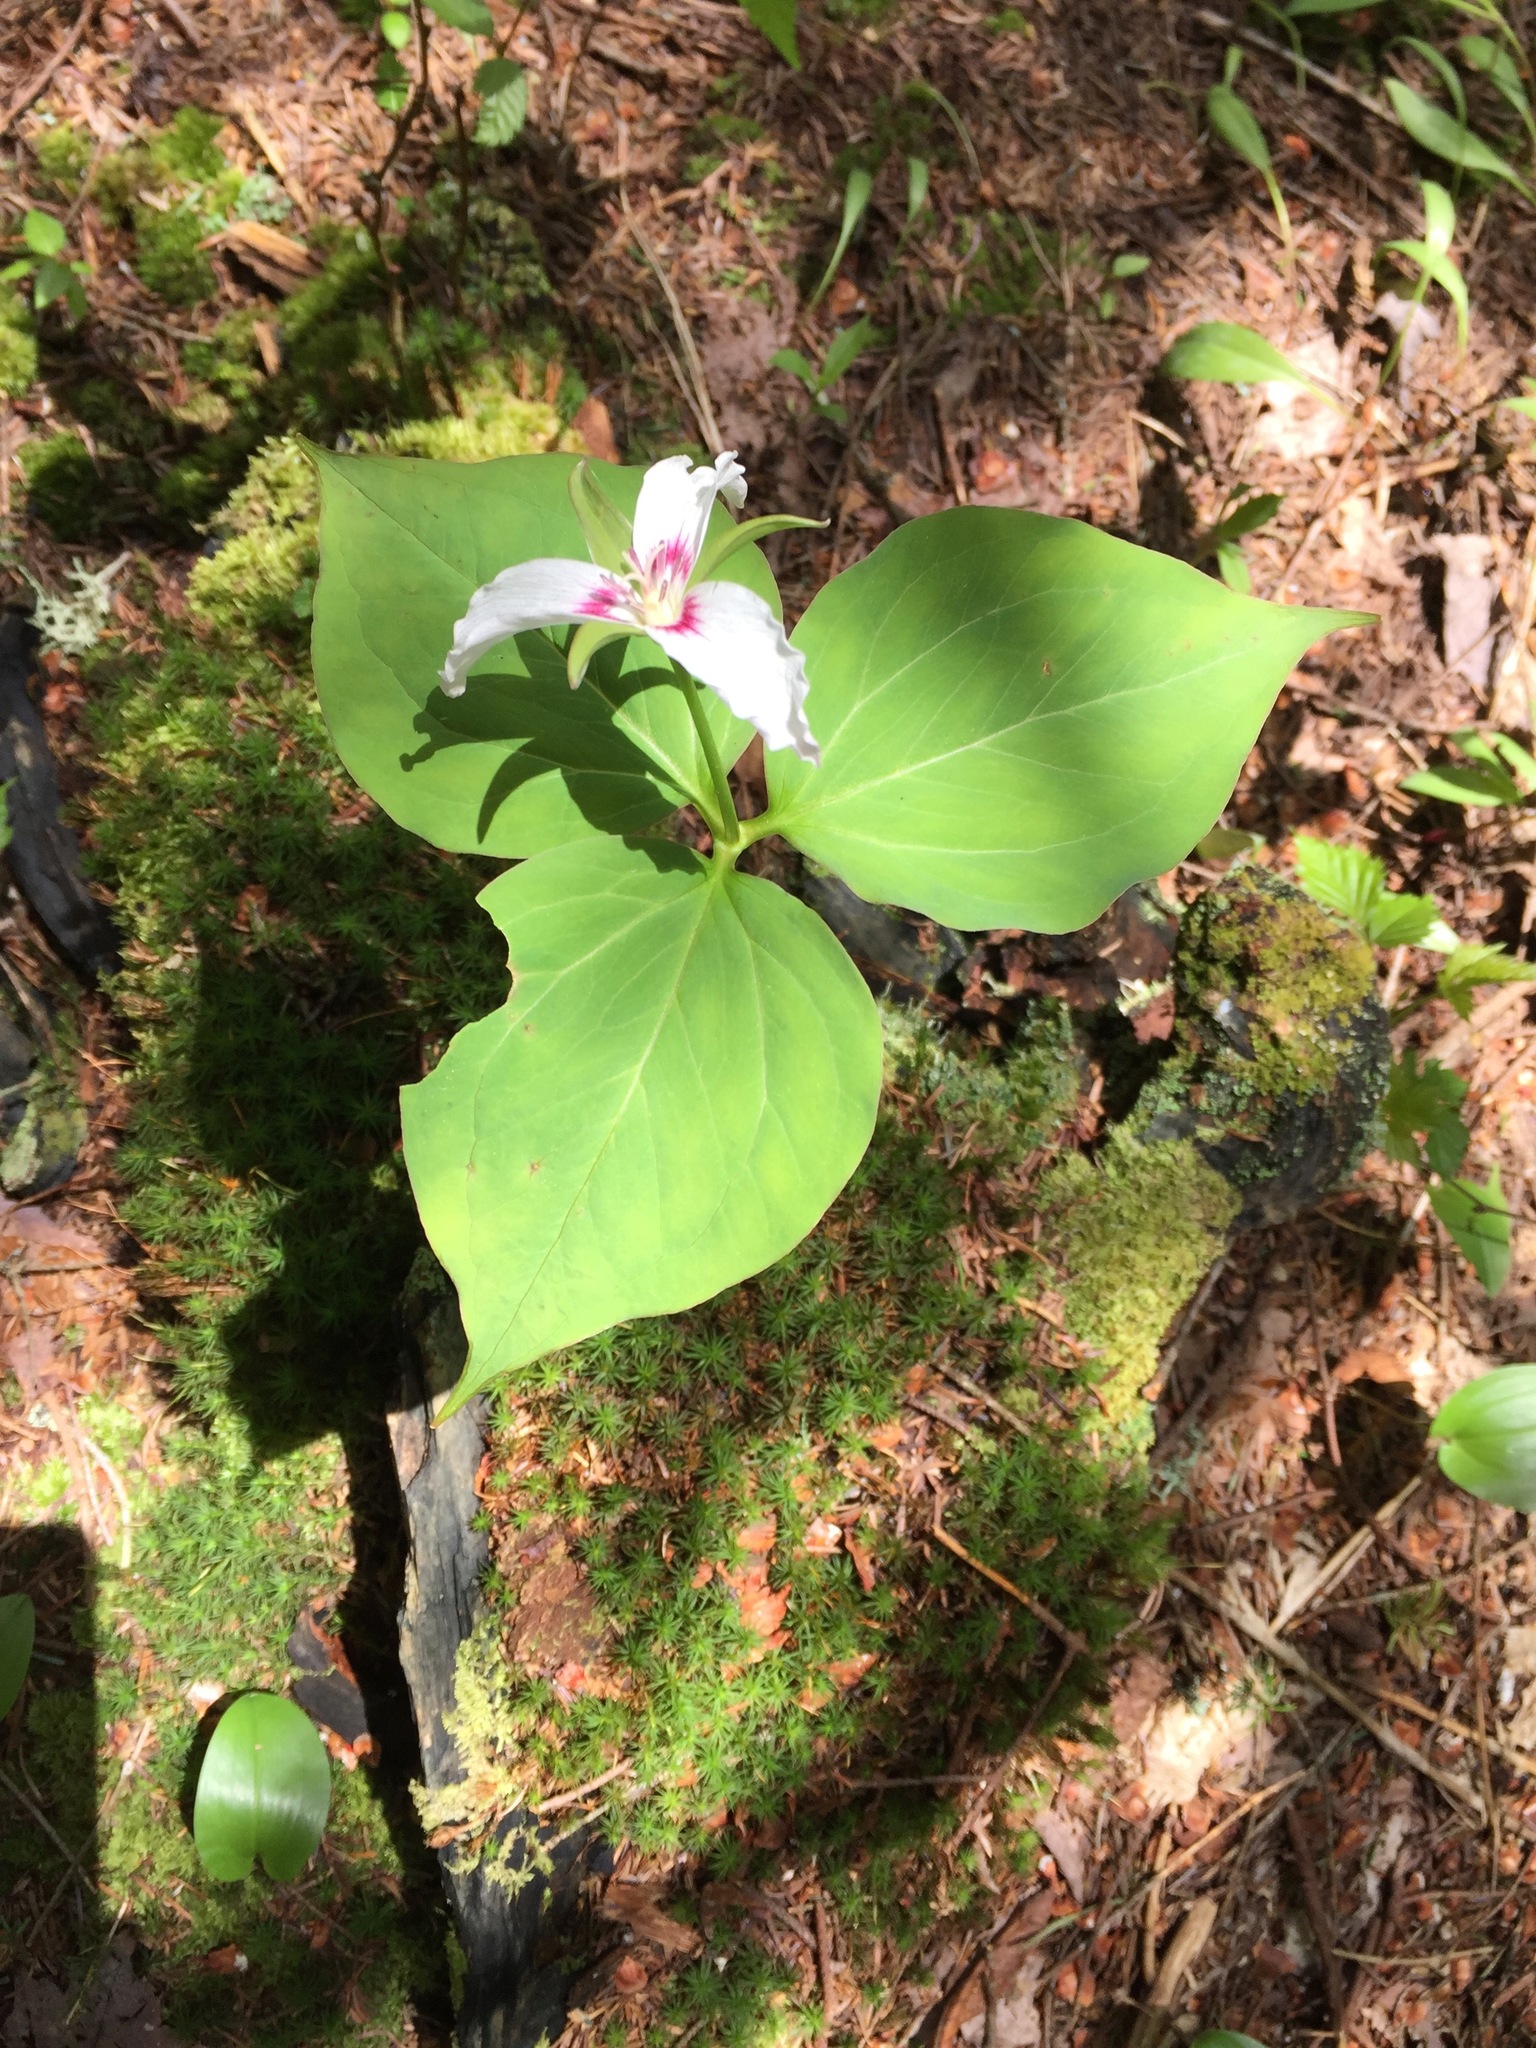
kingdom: Plantae
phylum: Tracheophyta
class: Liliopsida
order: Liliales
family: Melanthiaceae
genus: Trillium
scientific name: Trillium undulatum
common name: Paint trillium
